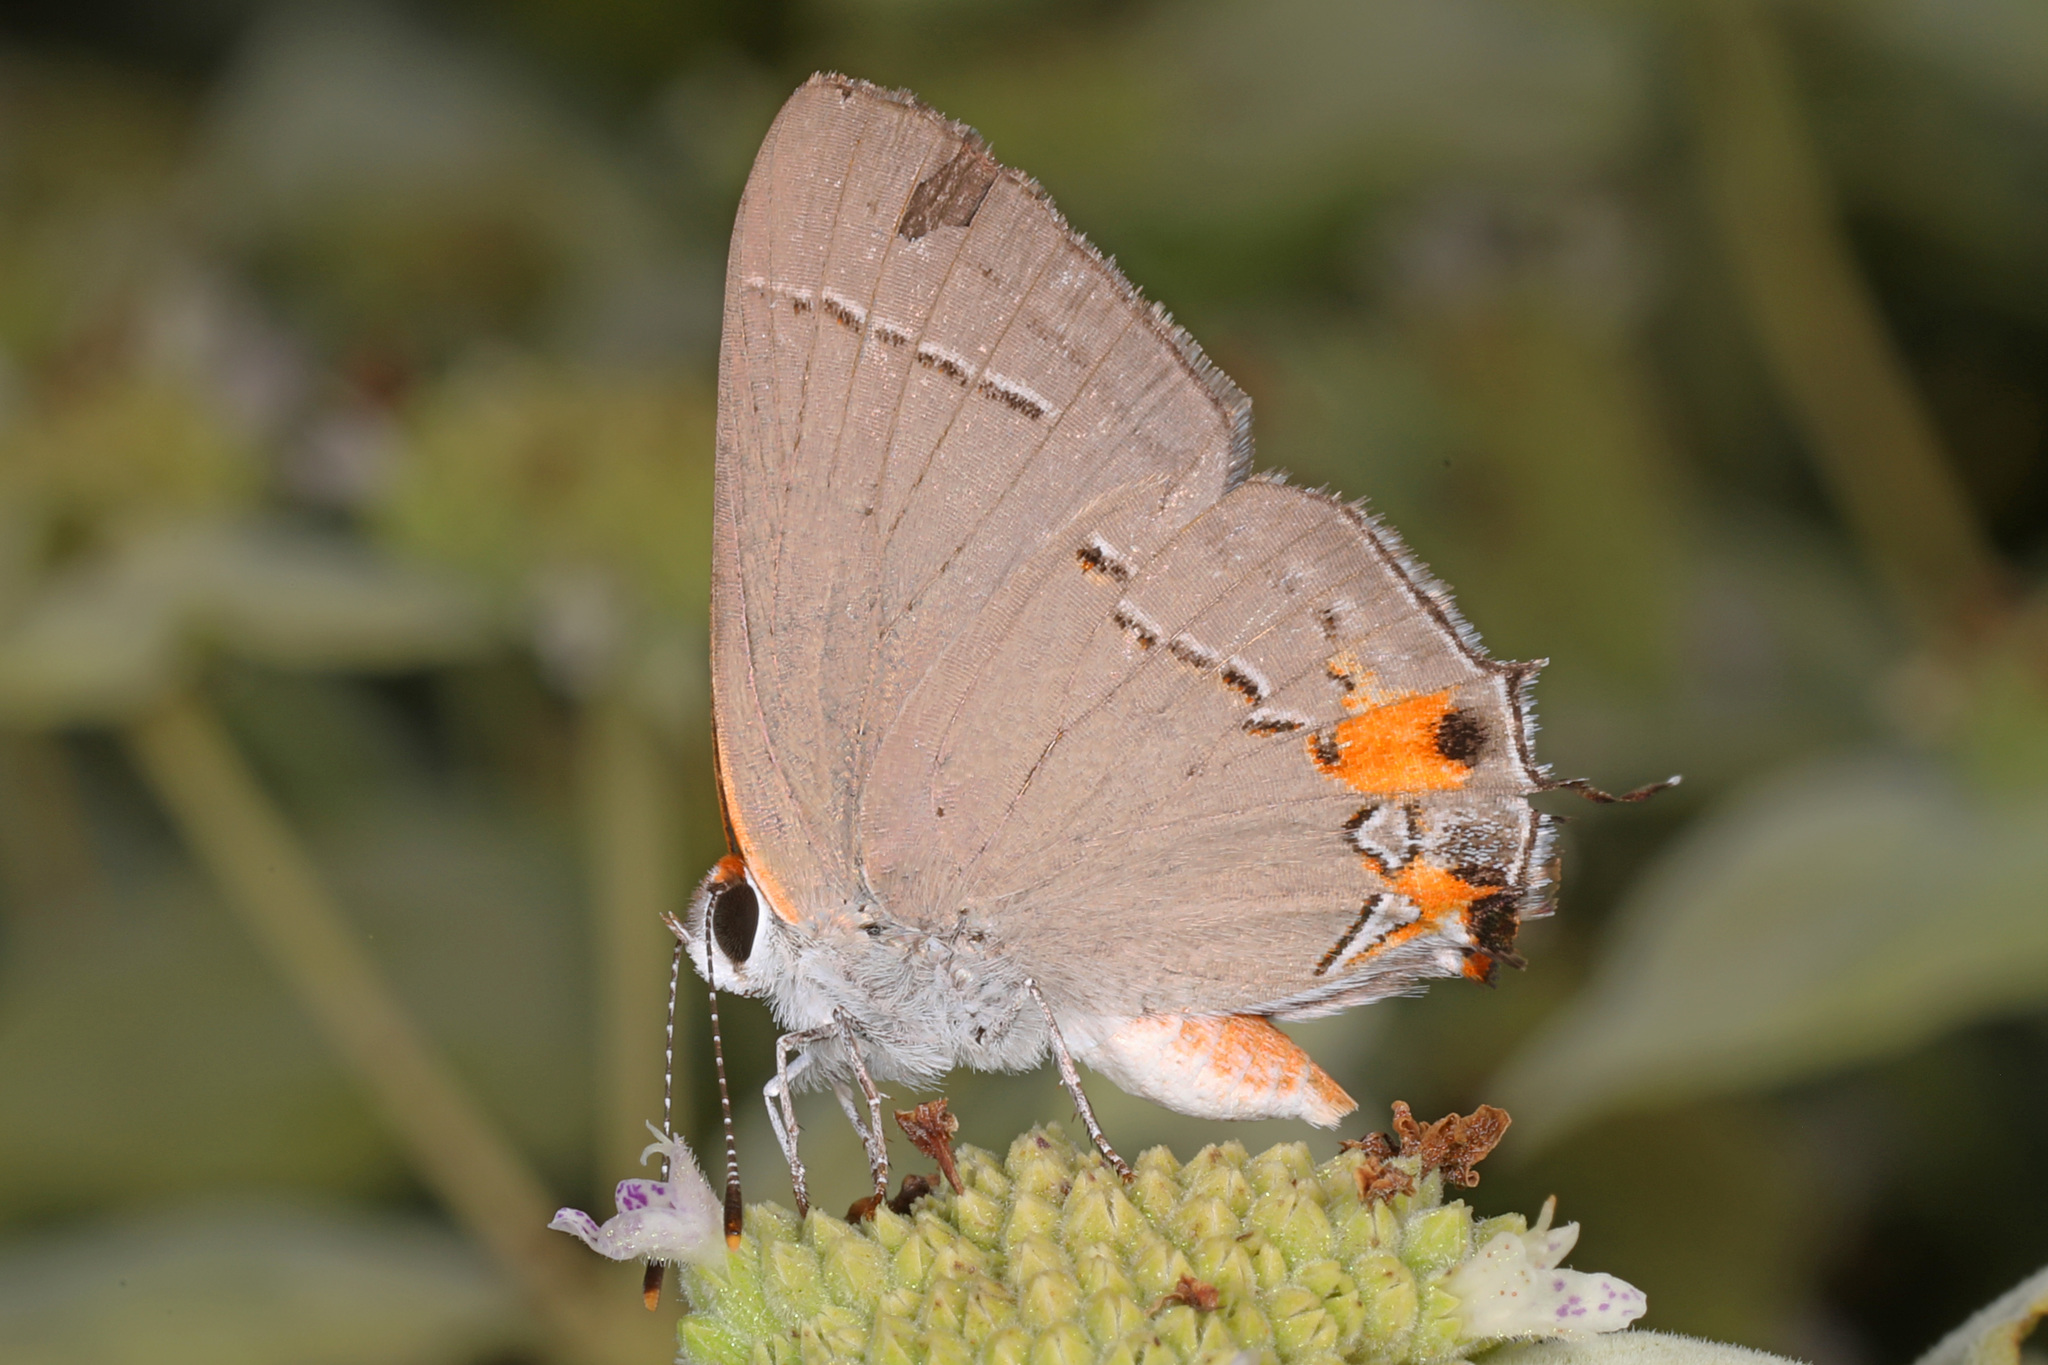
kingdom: Animalia
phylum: Arthropoda
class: Insecta
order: Lepidoptera
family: Lycaenidae
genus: Strymon
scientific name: Strymon melinus
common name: Gray hairstreak
